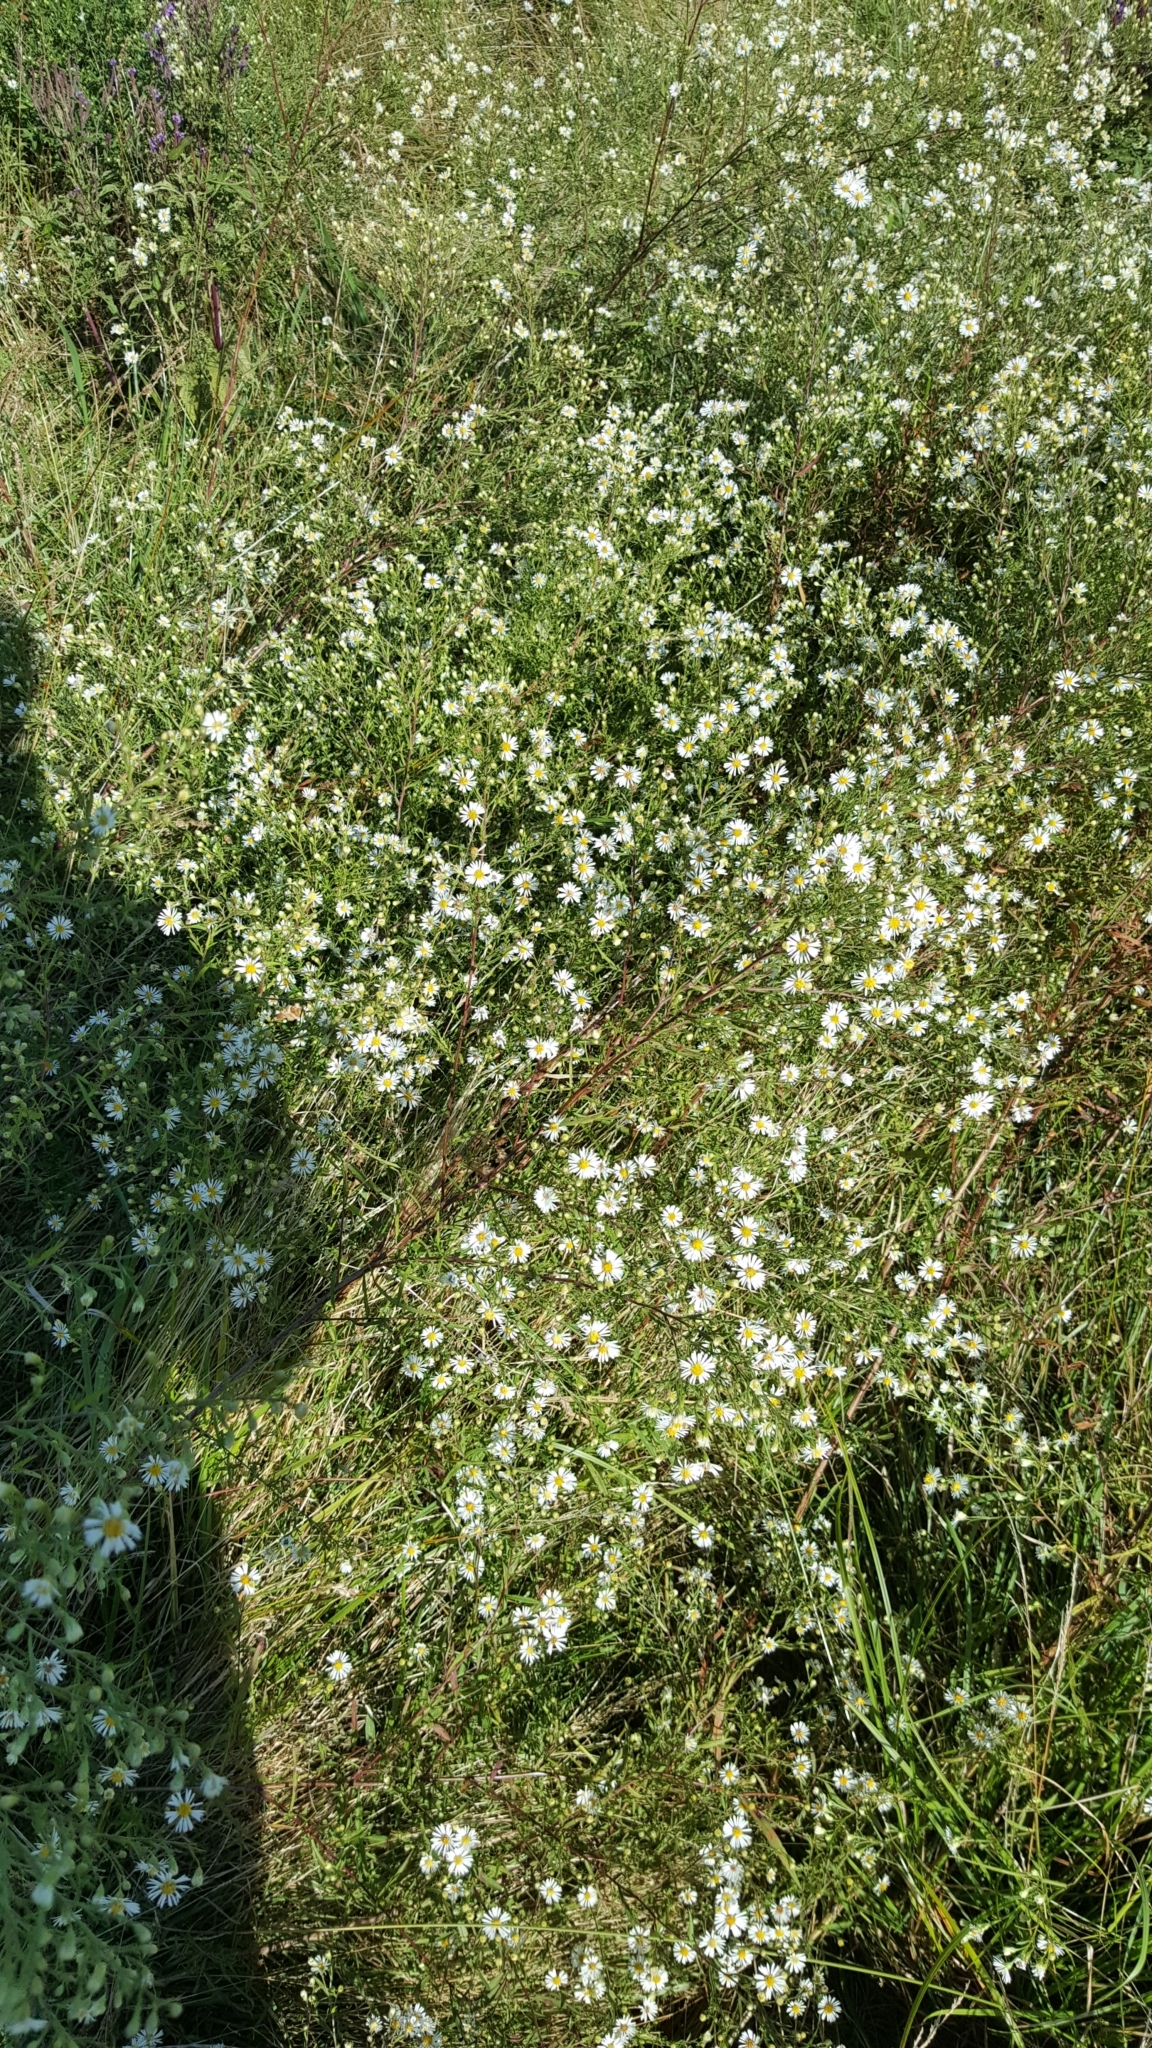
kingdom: Plantae
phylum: Tracheophyta
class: Magnoliopsida
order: Asterales
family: Asteraceae
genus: Symphyotrichum
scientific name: Symphyotrichum lanceolatum
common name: Panicled aster
